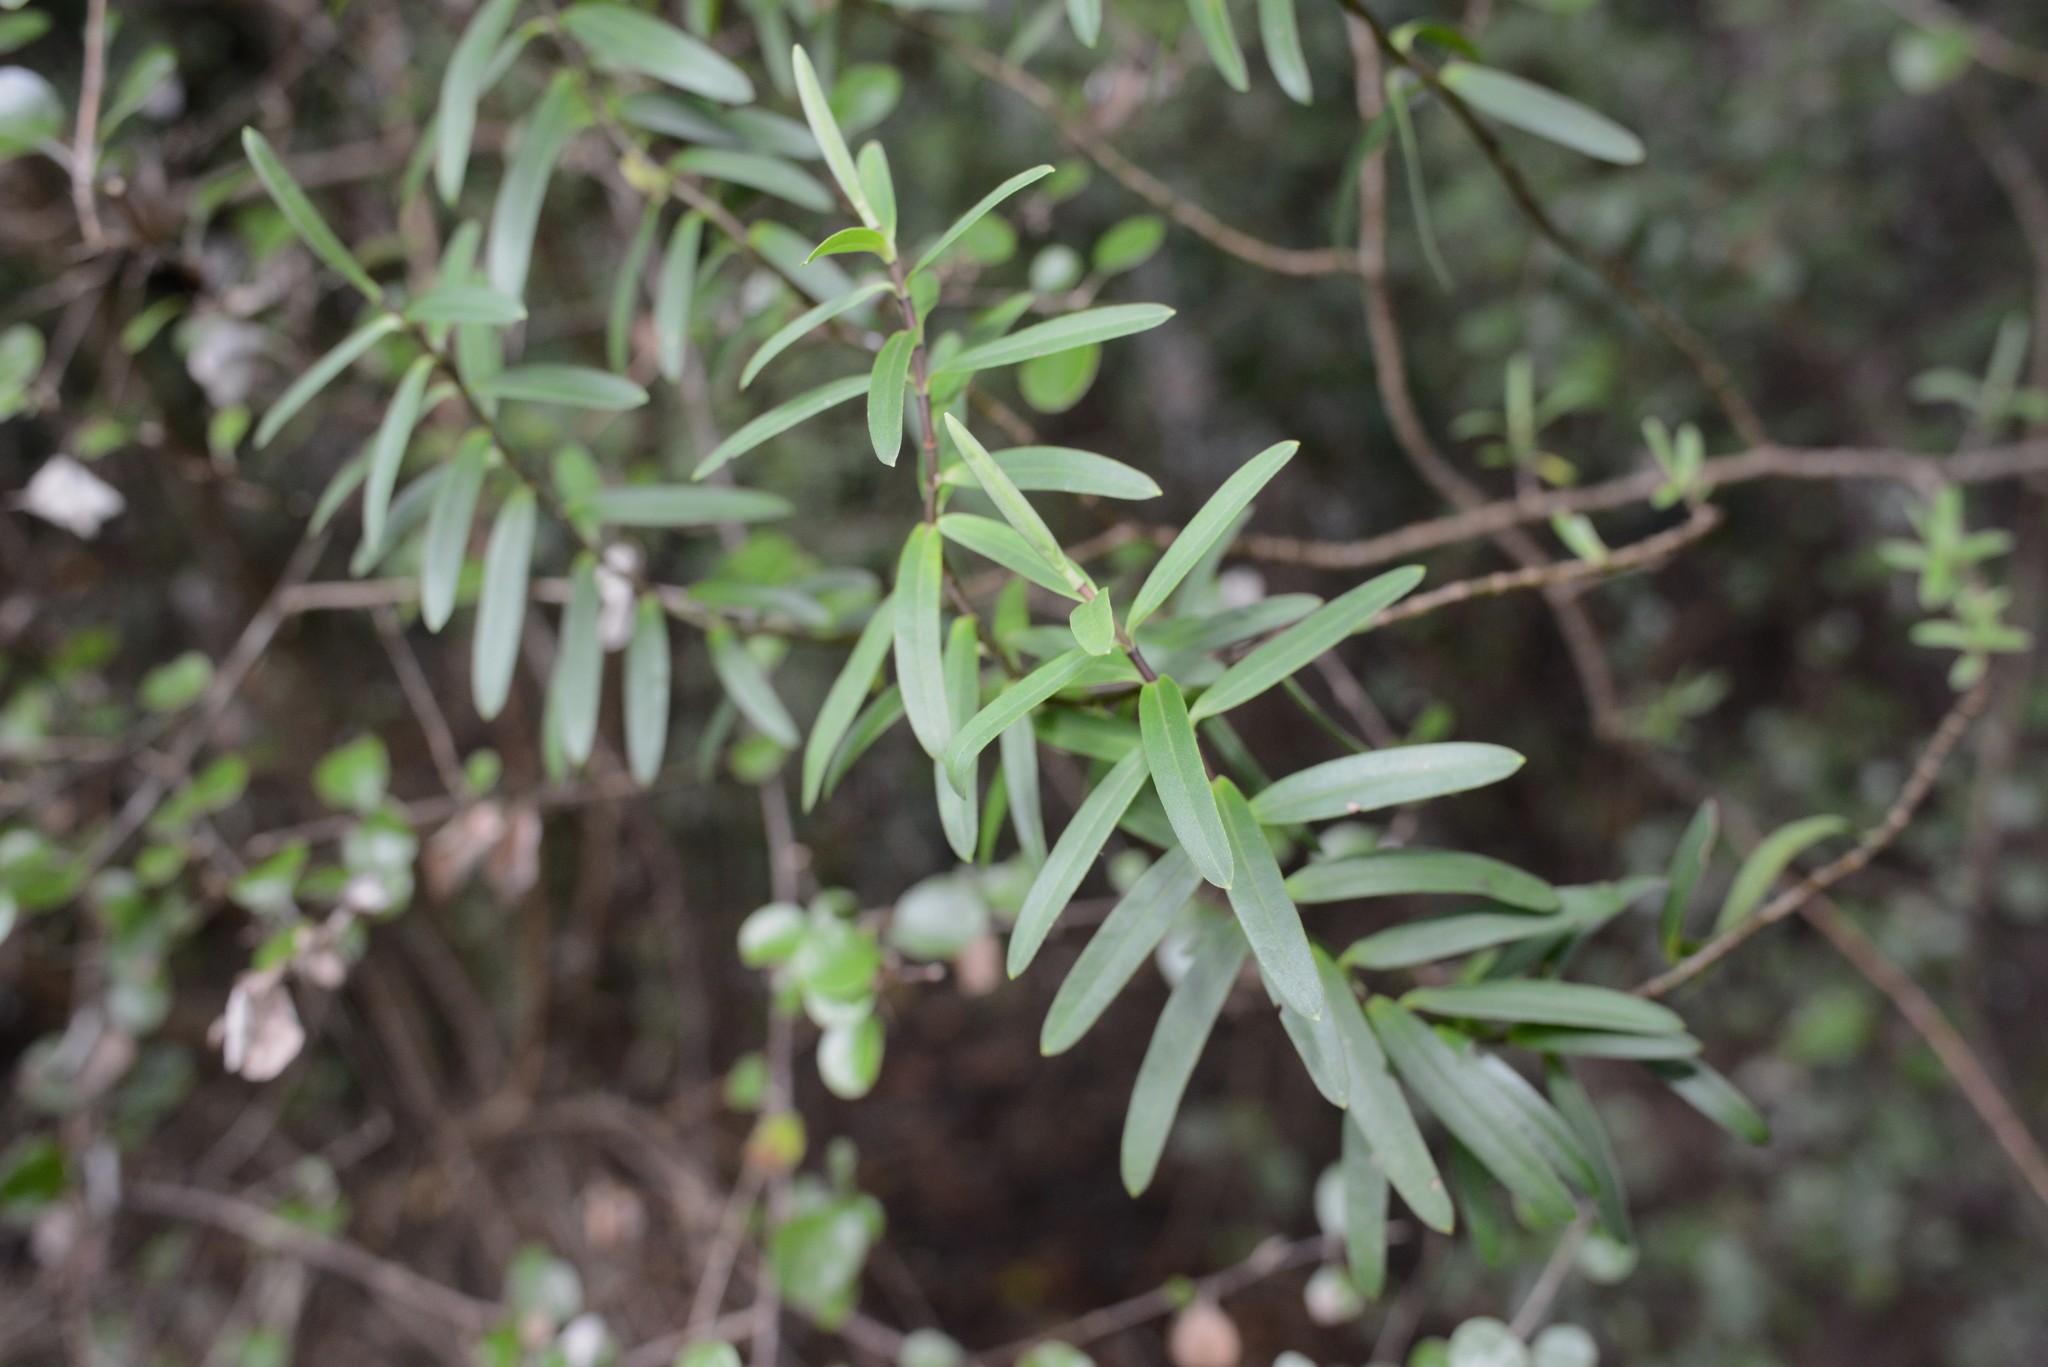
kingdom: Plantae
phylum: Tracheophyta
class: Magnoliopsida
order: Lamiales
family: Plantaginaceae
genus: Veronica
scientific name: Veronica strictissima
